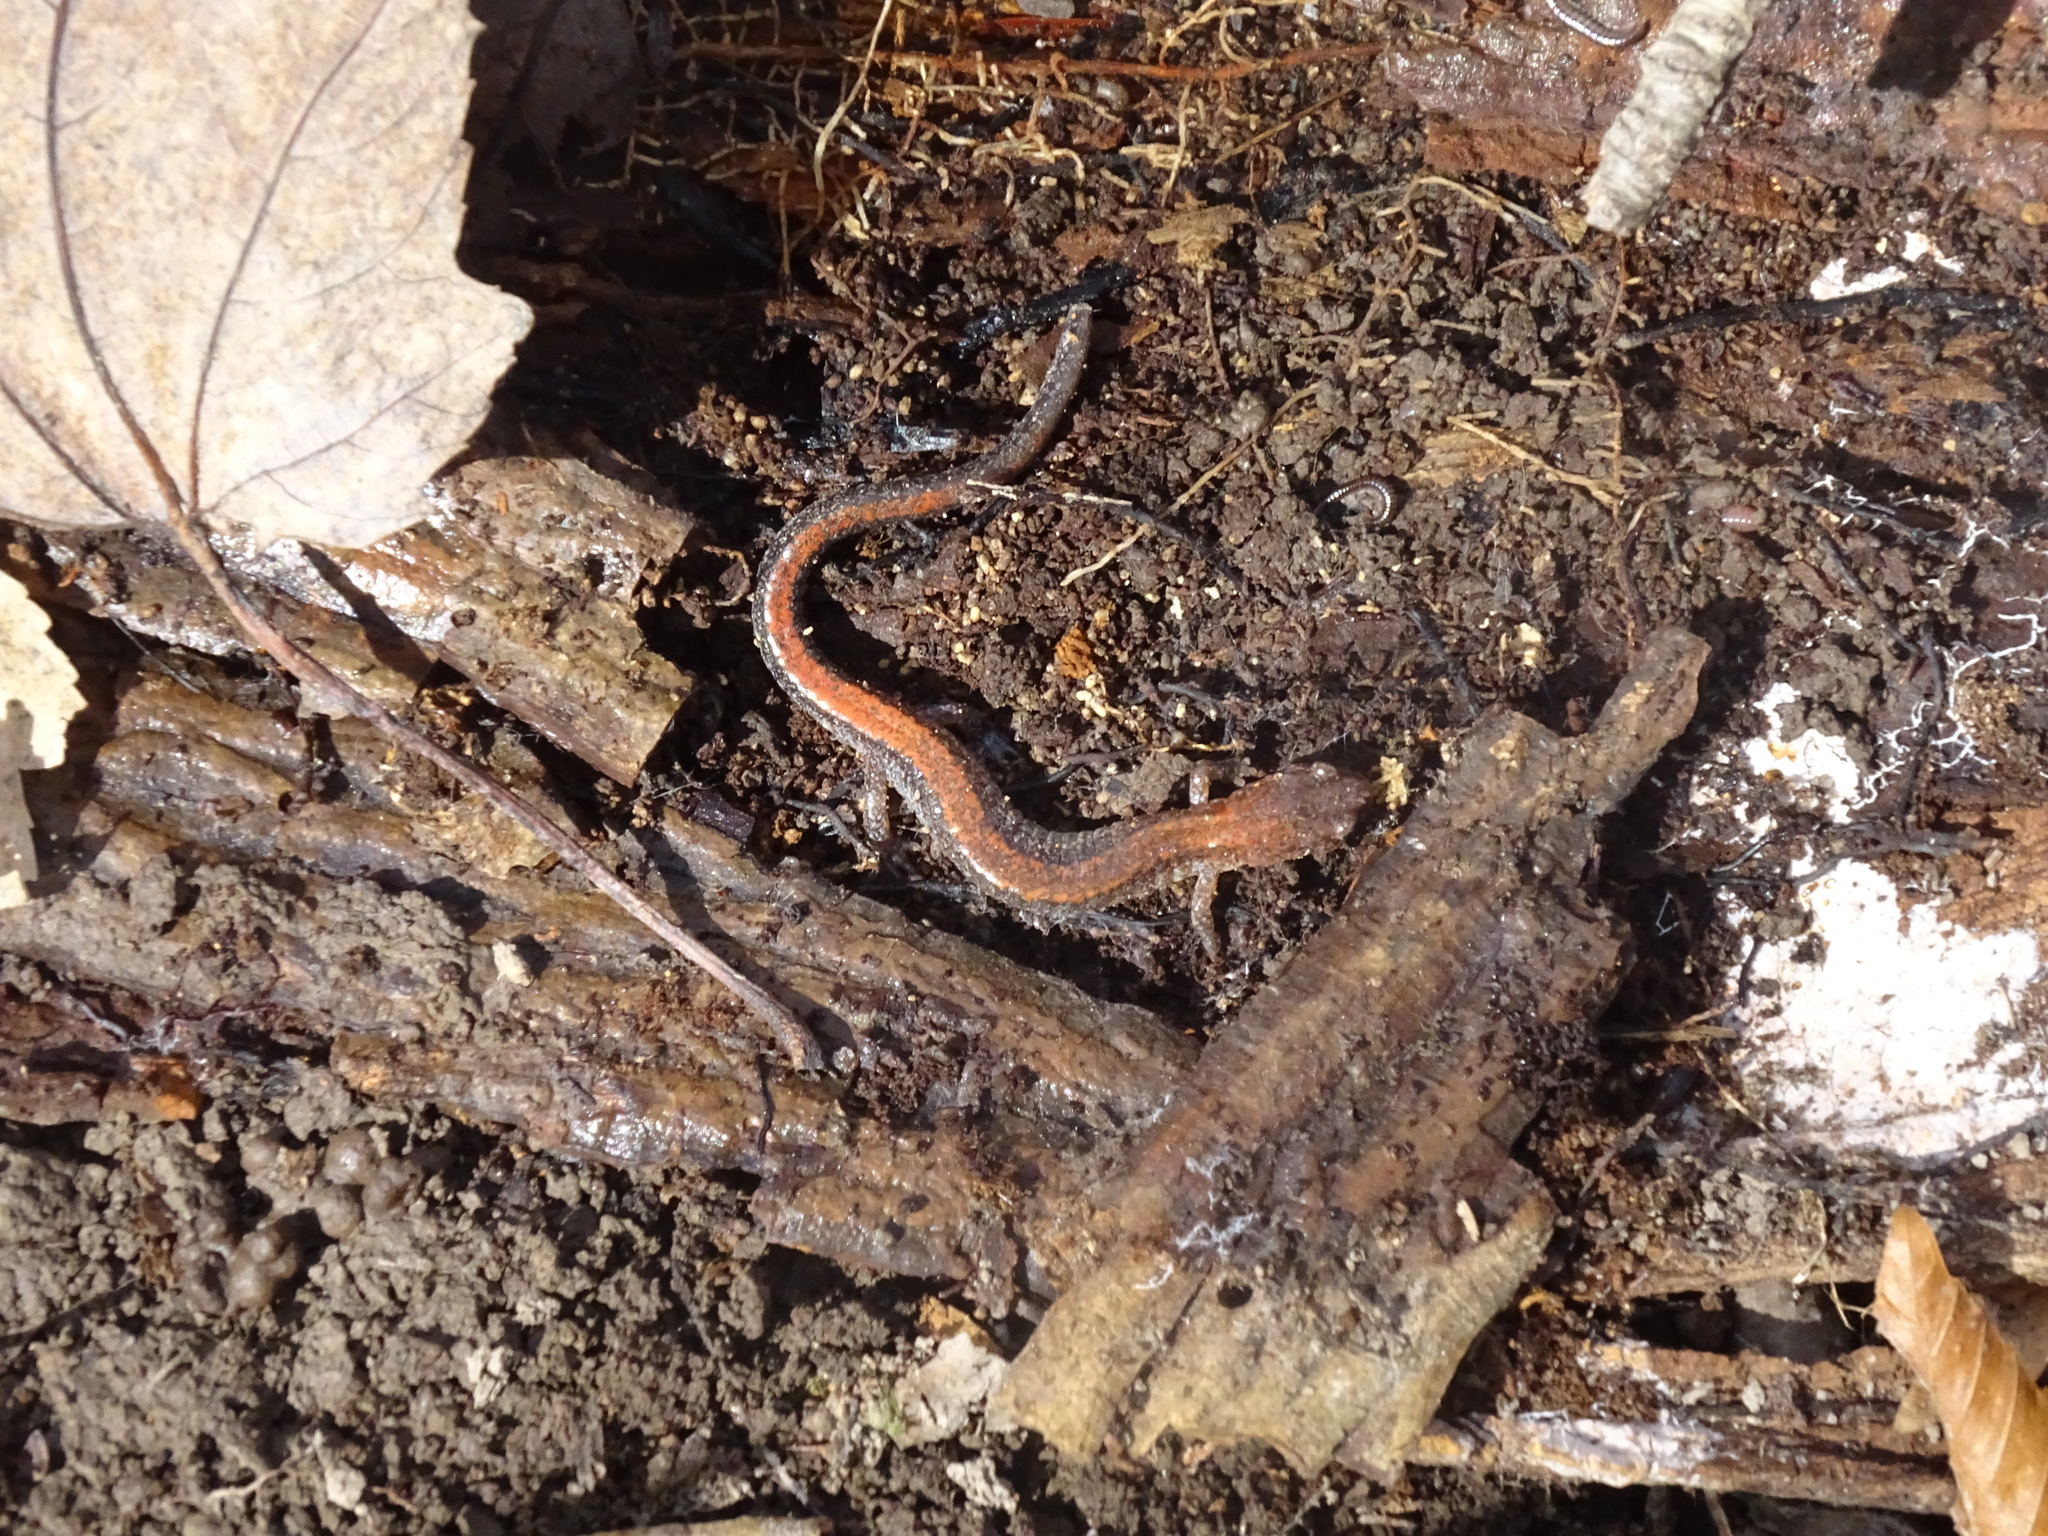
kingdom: Animalia
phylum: Chordata
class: Amphibia
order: Caudata
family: Plethodontidae
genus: Plethodon
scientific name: Plethodon cinereus
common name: Redback salamander
